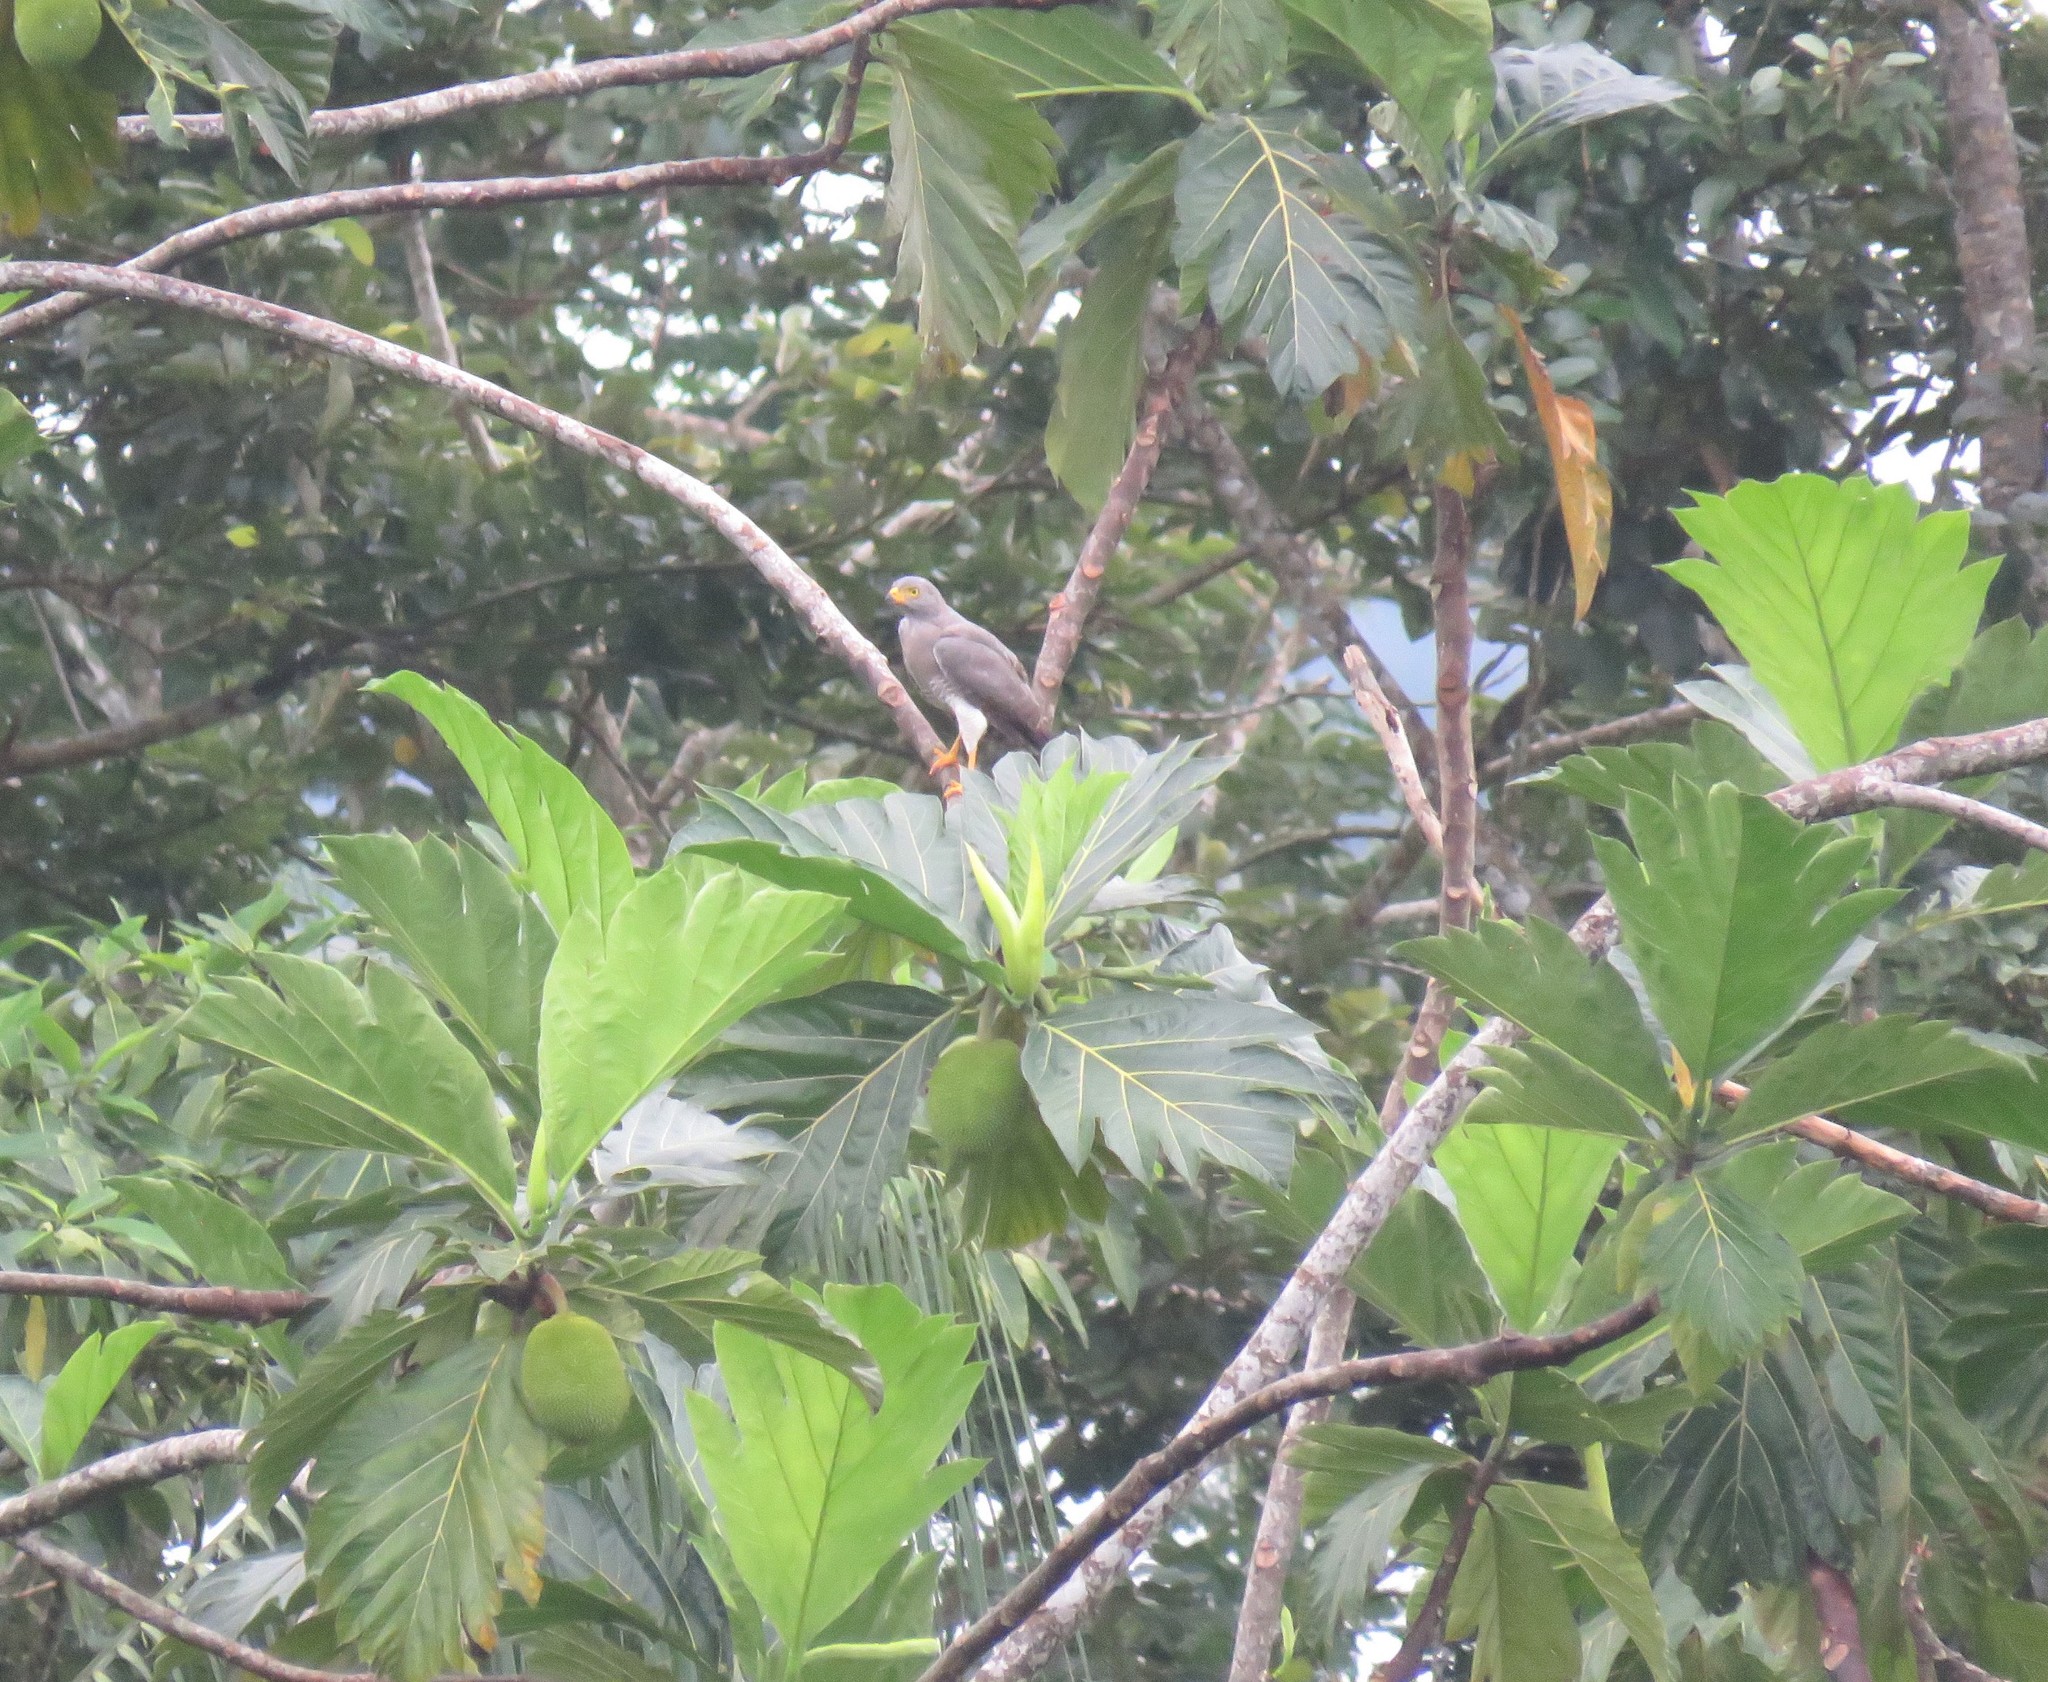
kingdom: Animalia
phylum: Chordata
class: Aves
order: Accipitriformes
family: Accipitridae
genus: Rupornis
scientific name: Rupornis magnirostris
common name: Roadside hawk
